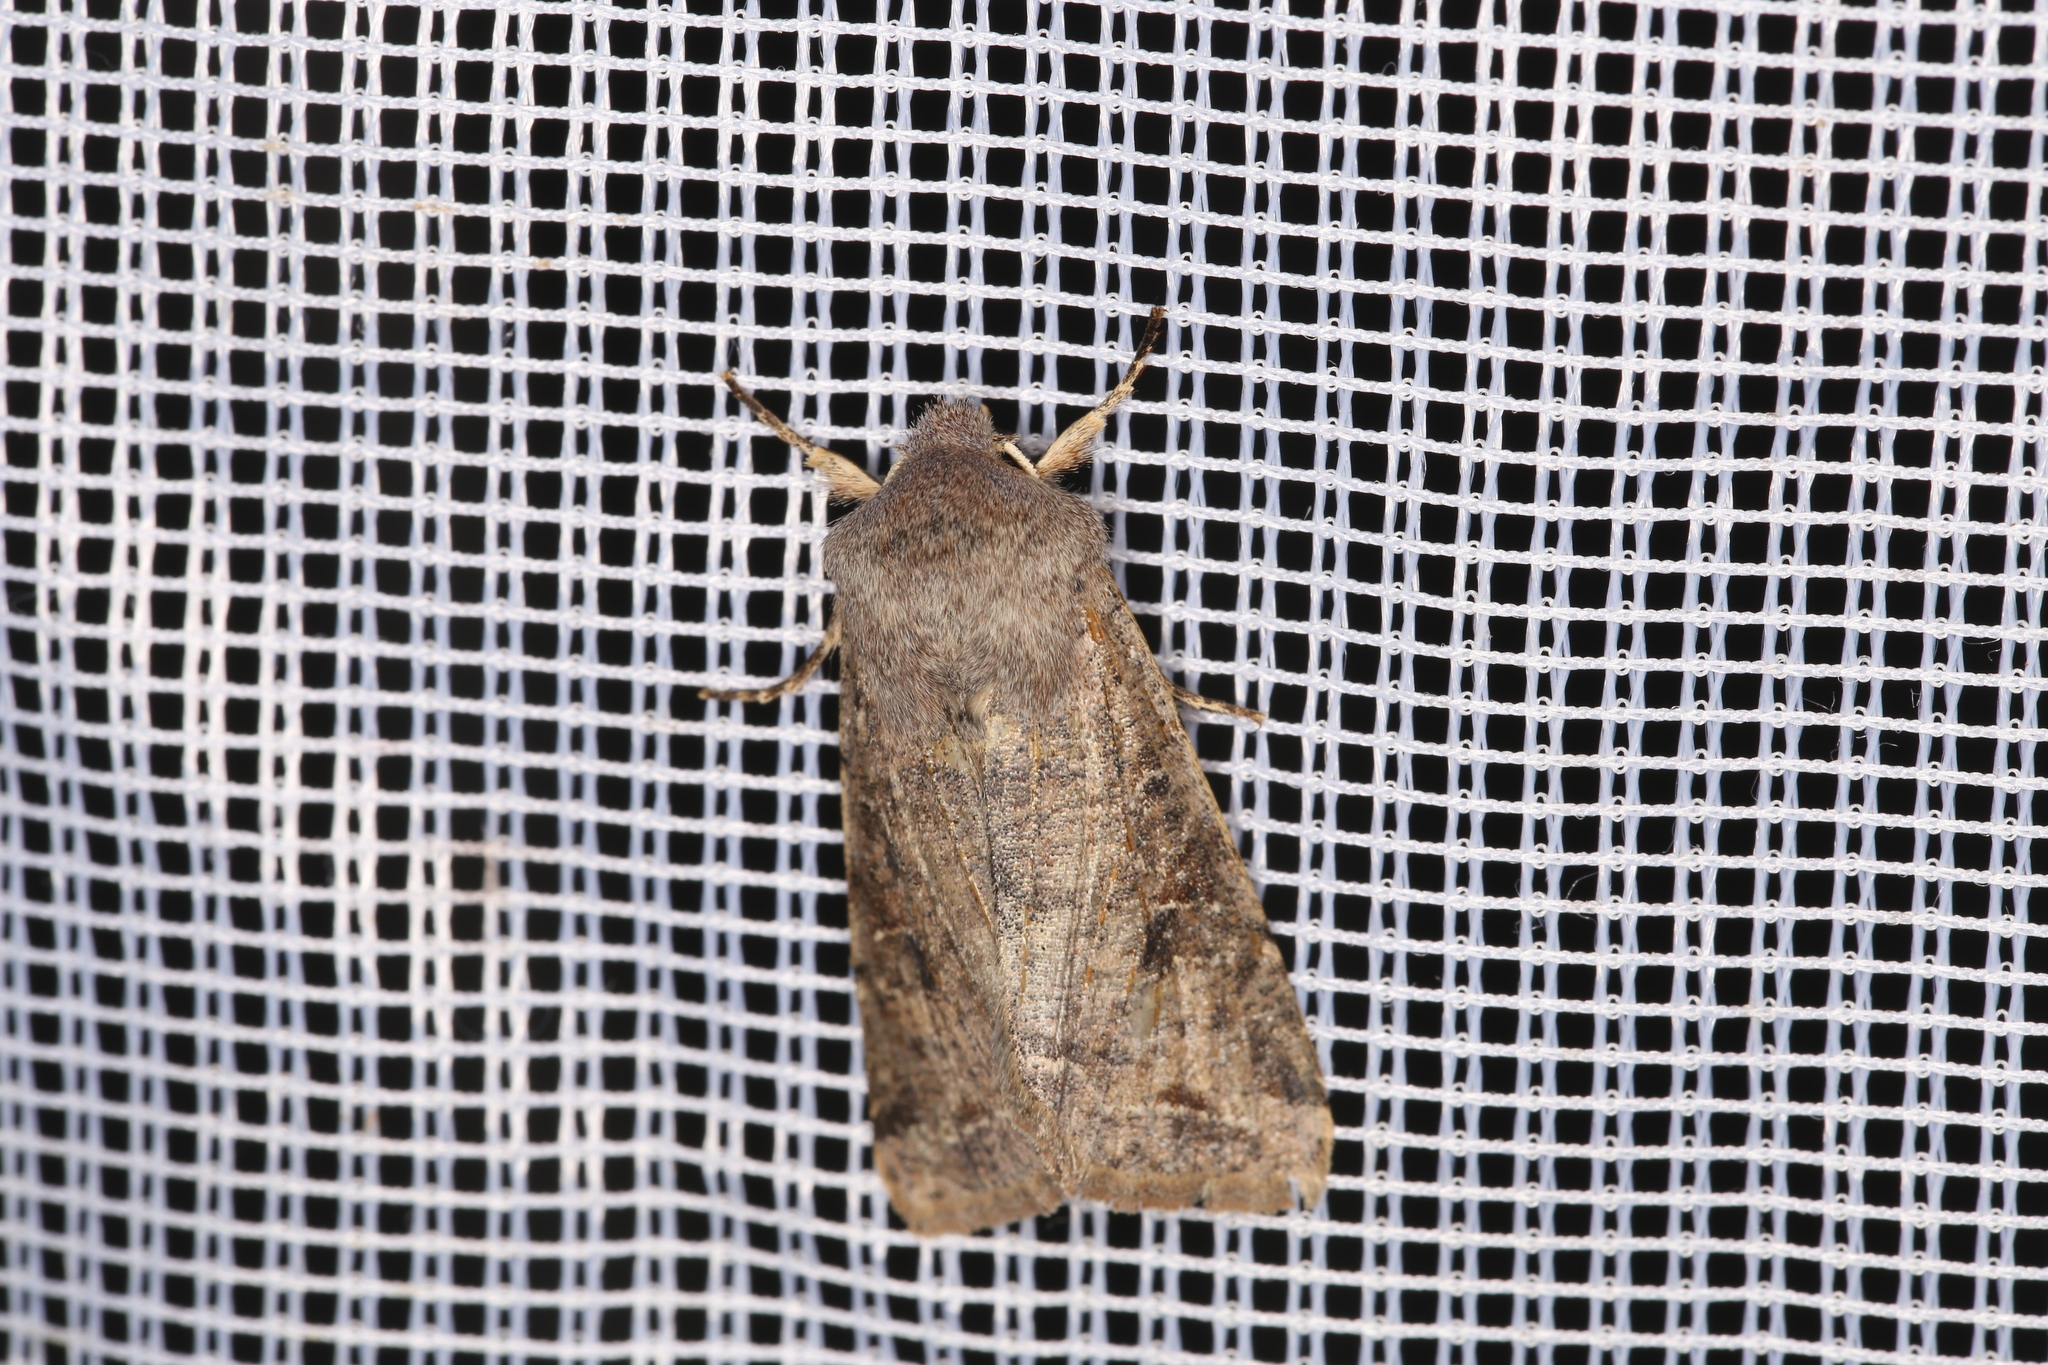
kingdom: Animalia
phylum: Arthropoda
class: Insecta
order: Lepidoptera
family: Noctuidae
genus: Orthosia
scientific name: Orthosia incerta
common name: Clouded drab
